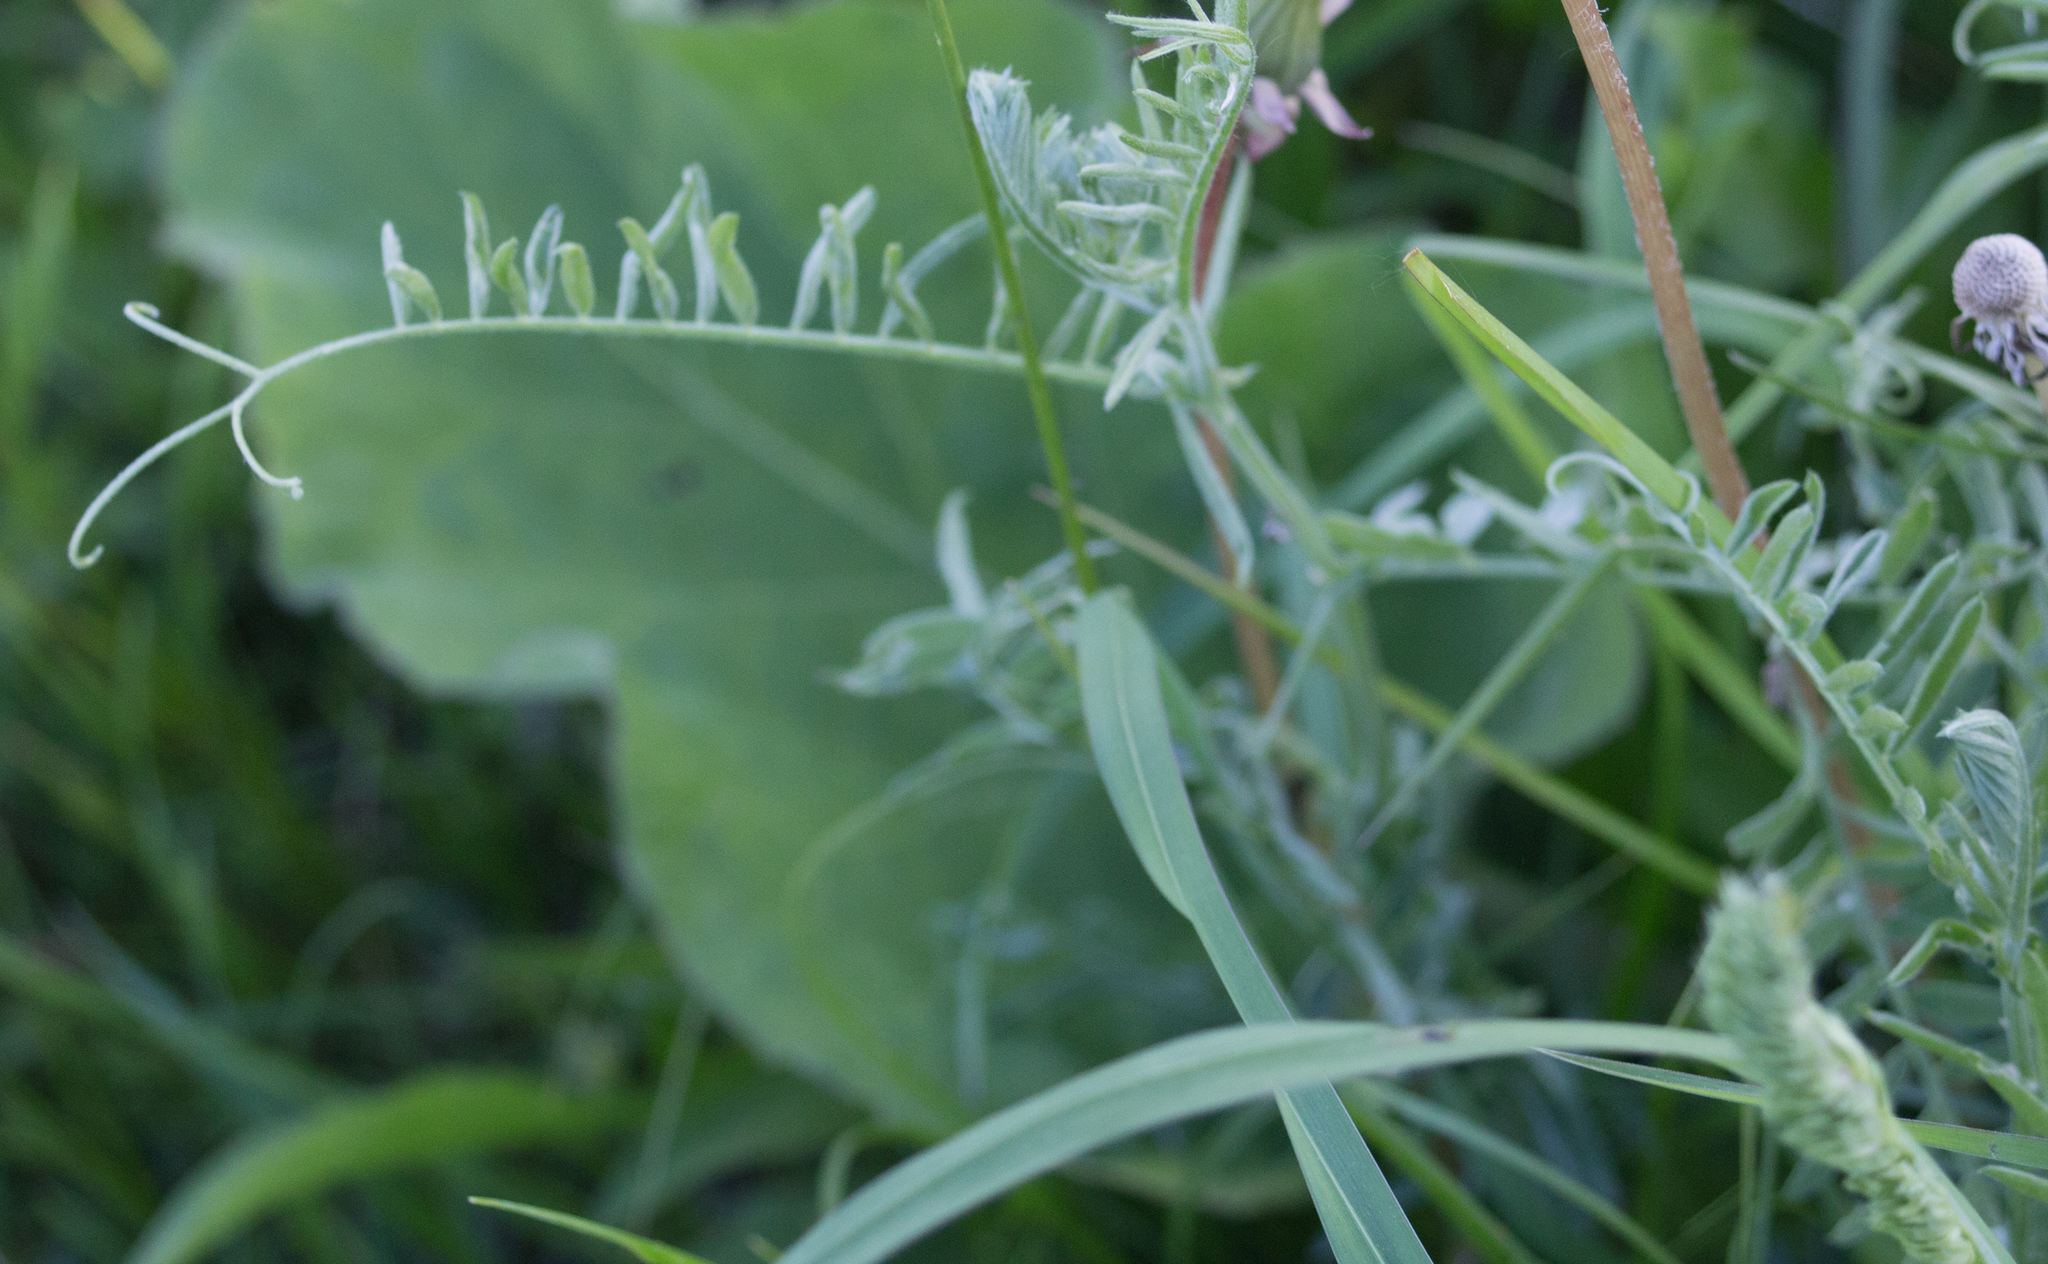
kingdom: Plantae
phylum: Tracheophyta
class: Magnoliopsida
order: Fabales
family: Fabaceae
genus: Vicia
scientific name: Vicia cracca
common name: Bird vetch
